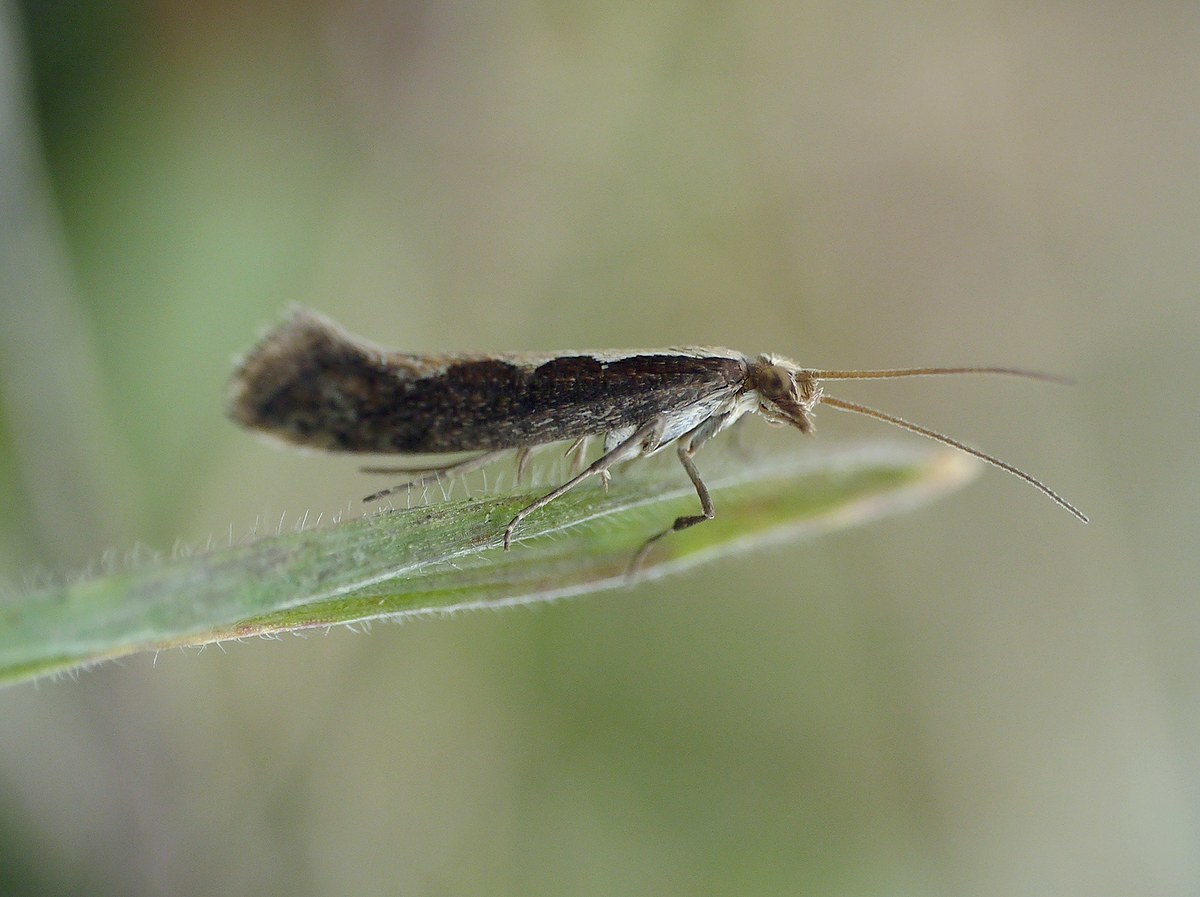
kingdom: Animalia
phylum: Arthropoda
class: Insecta
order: Lepidoptera
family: Plutellidae
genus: Plutella
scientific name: Plutella xylostella
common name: Diamond-back moth
